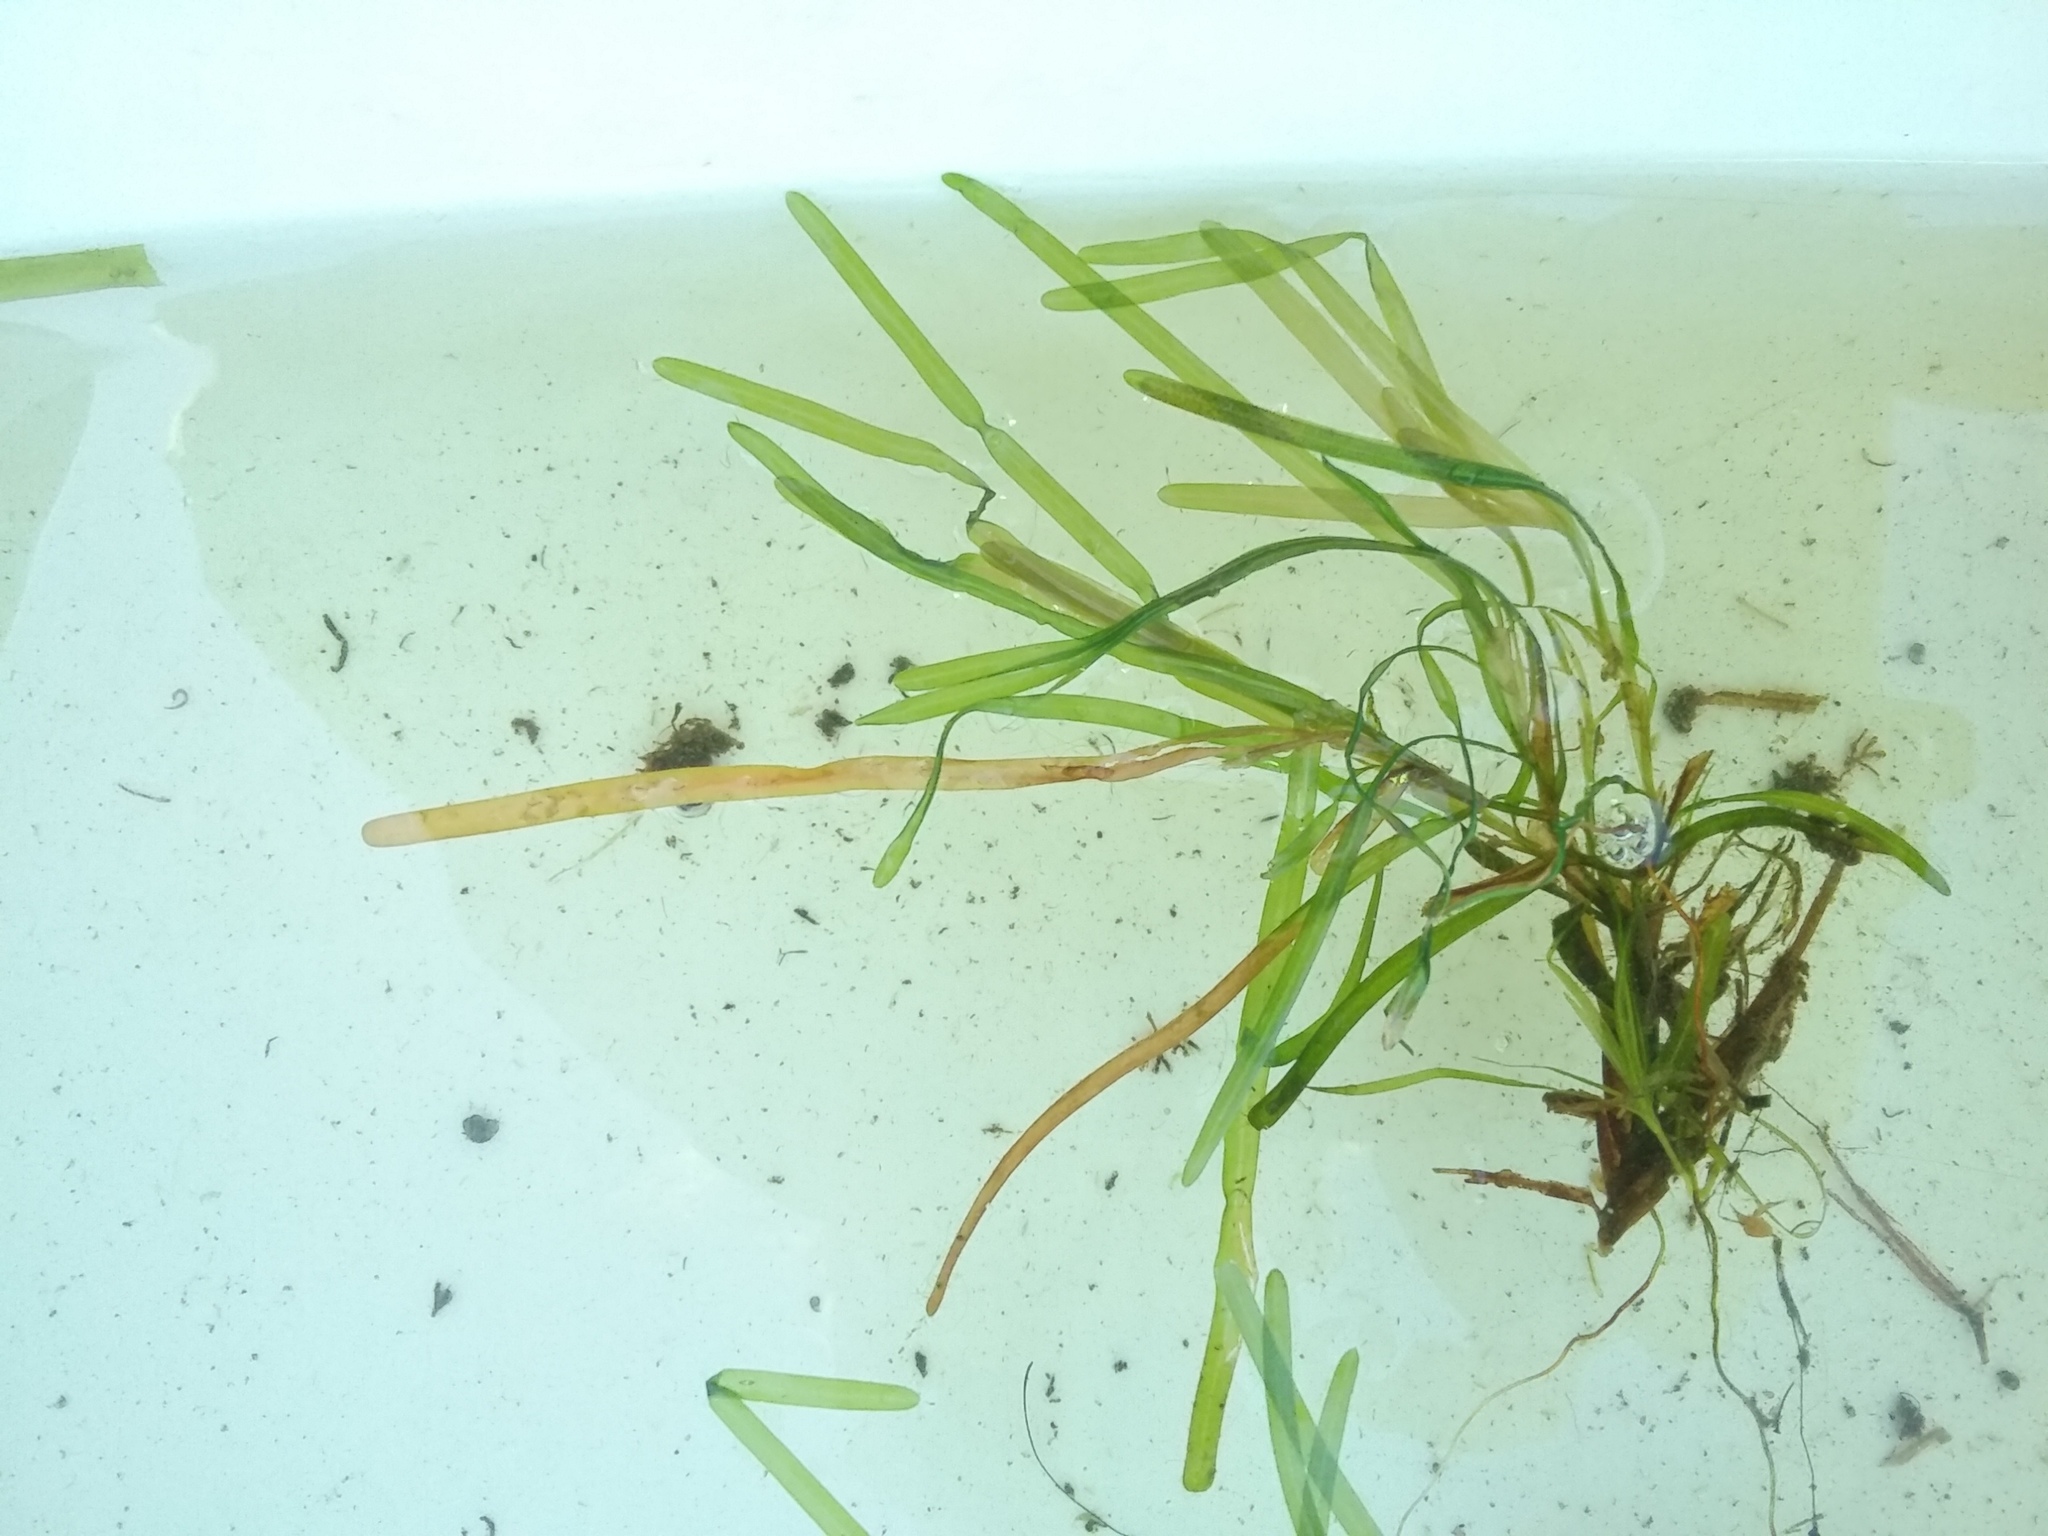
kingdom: Plantae
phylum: Tracheophyta
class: Liliopsida
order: Alismatales
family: Potamogetonaceae
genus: Potamogeton
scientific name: Potamogeton obtusifolius
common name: Blunt-leaved pondweed
